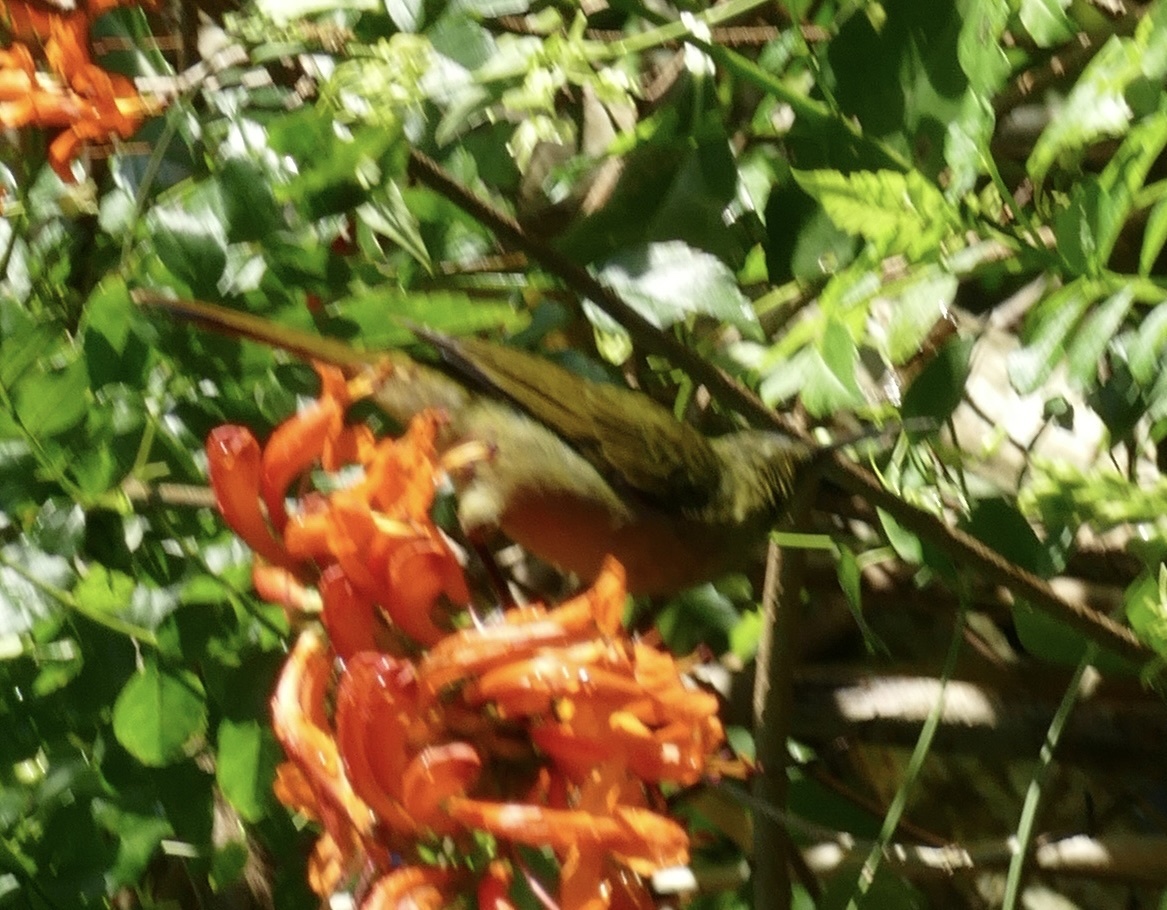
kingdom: Animalia
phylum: Chordata
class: Aves
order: Passeriformes
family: Nectariniidae
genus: Cyanomitra
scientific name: Cyanomitra olivacea
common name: Olive sunbird
